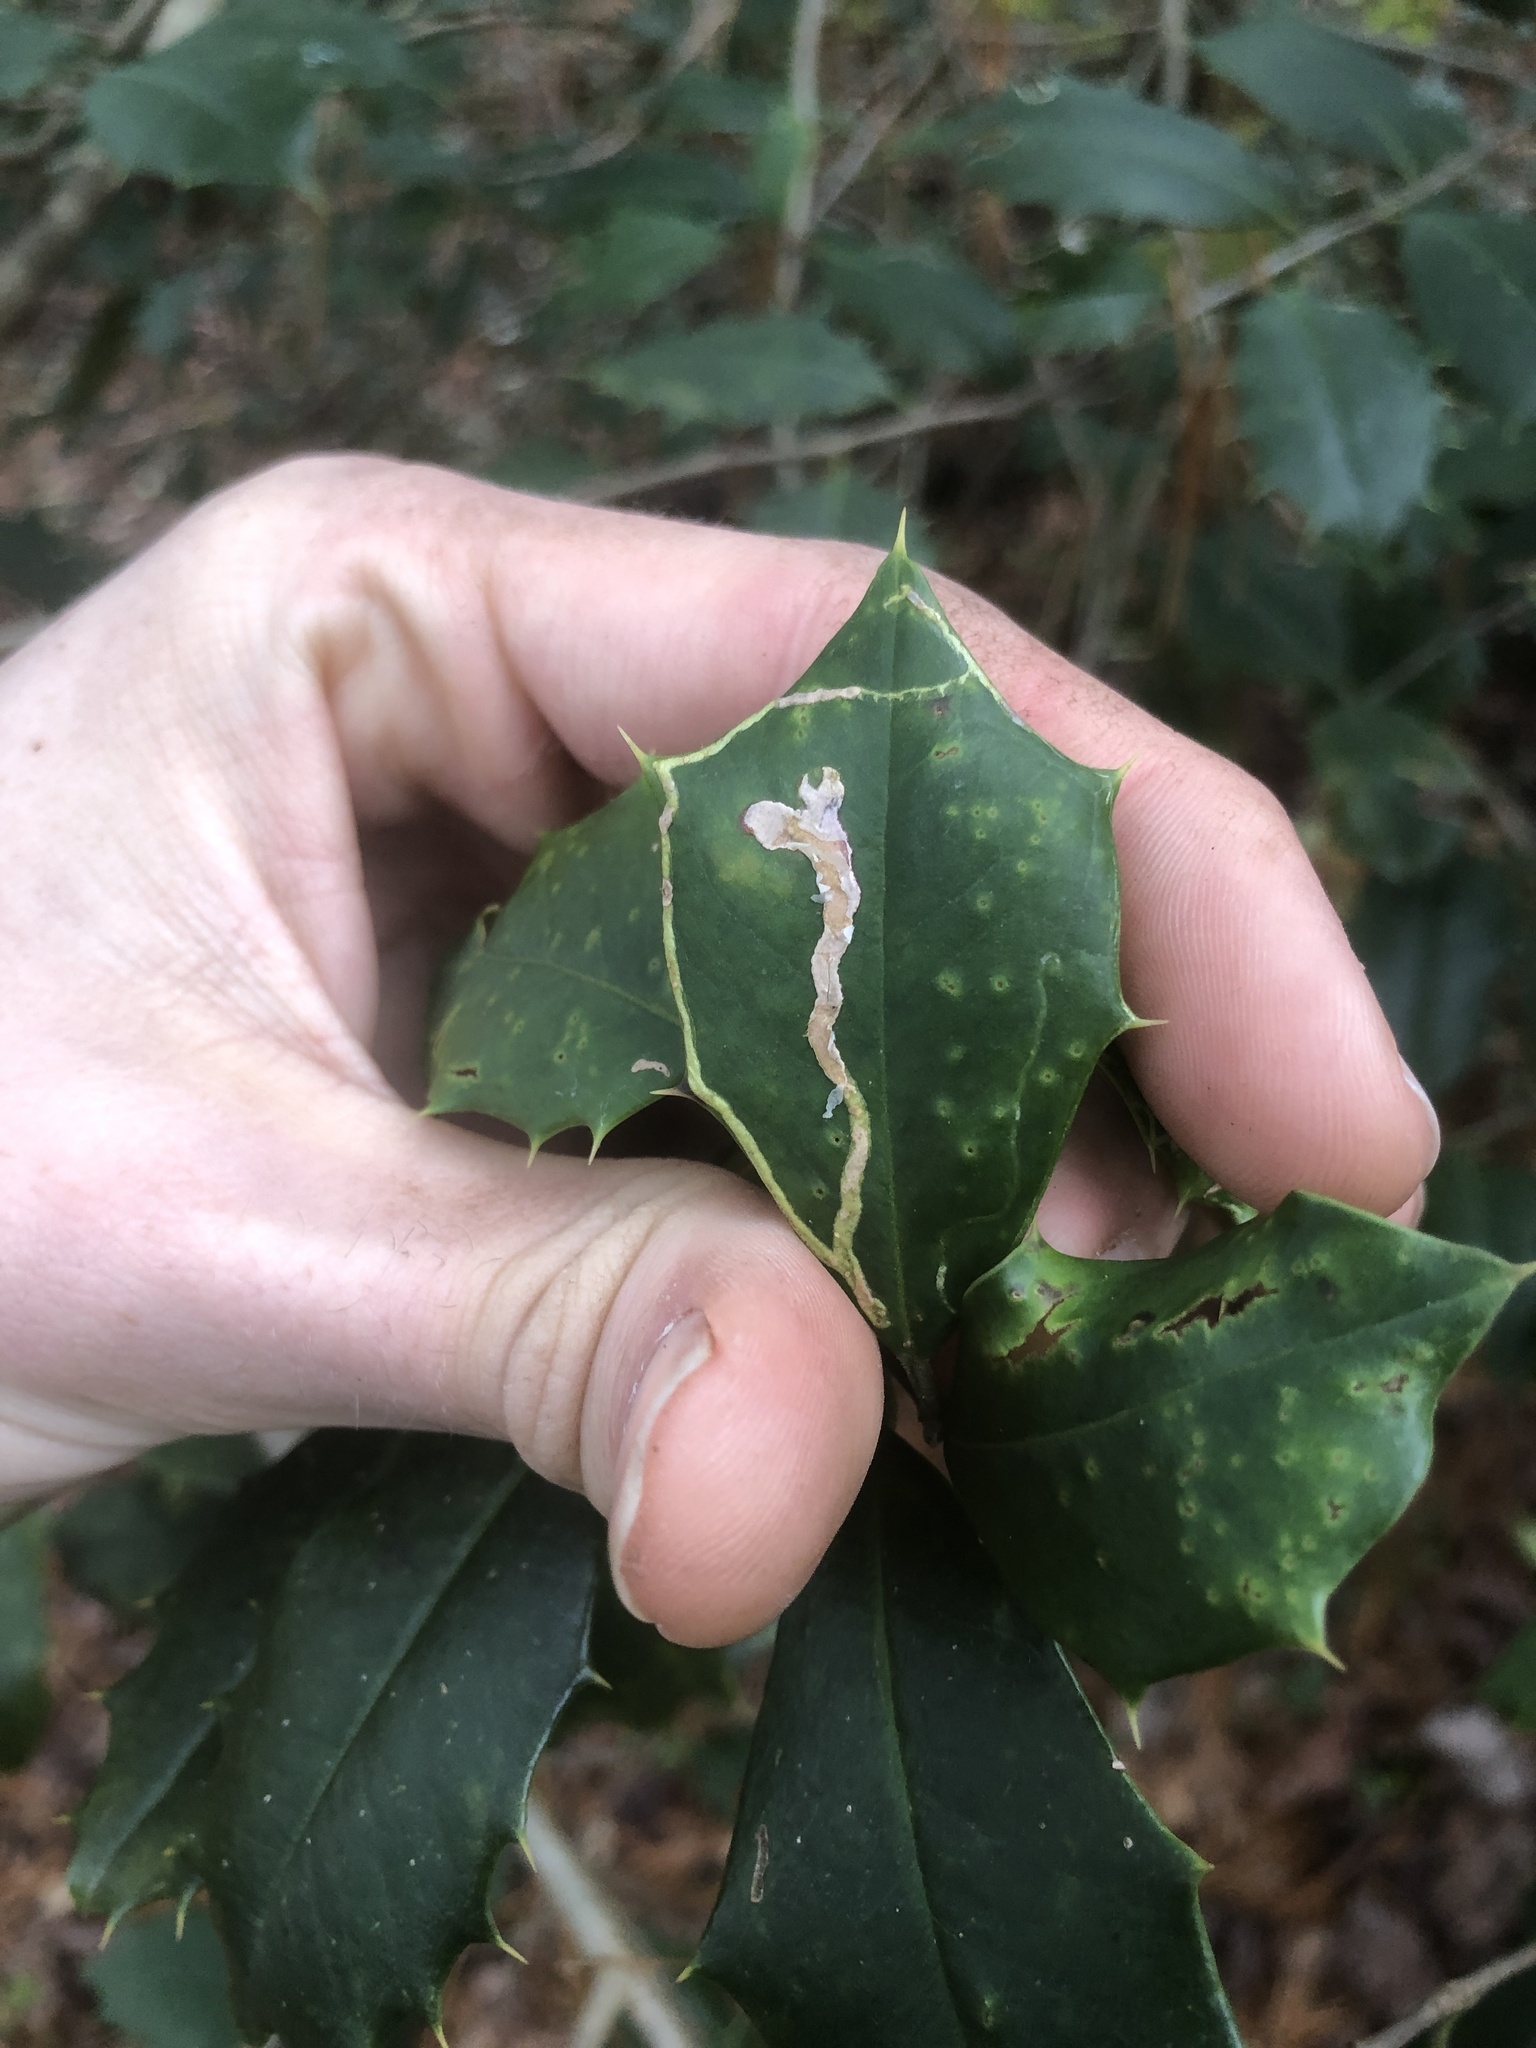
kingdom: Animalia
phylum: Arthropoda
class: Insecta
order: Diptera
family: Agromyzidae
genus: Phytomyza
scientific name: Phytomyza opacae
